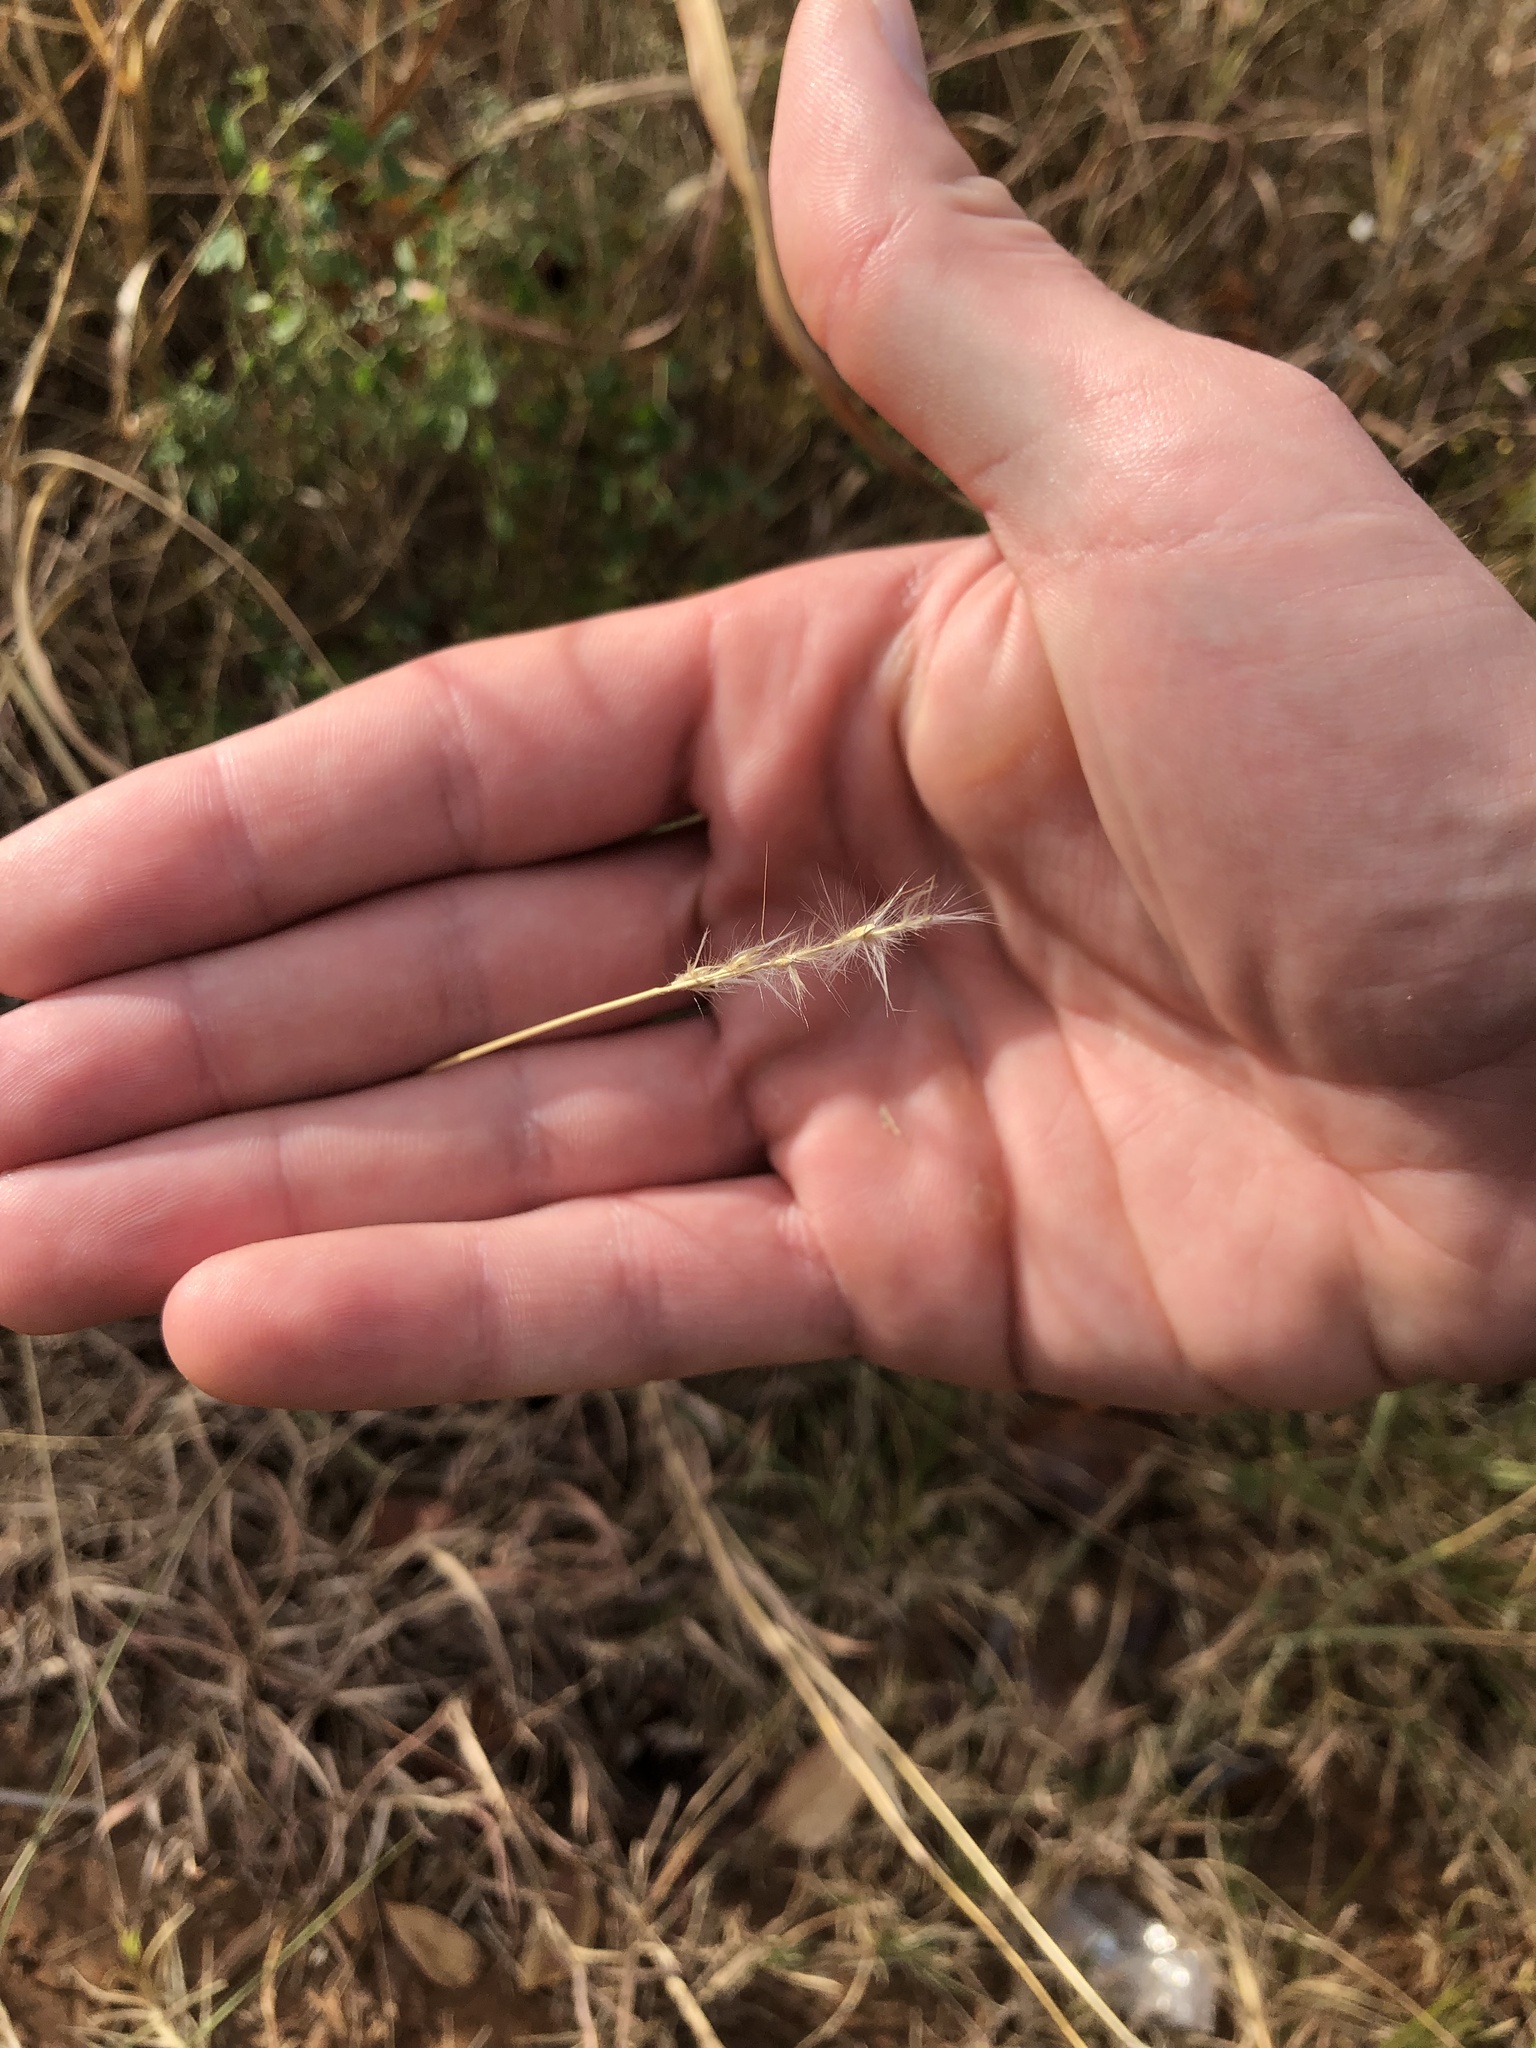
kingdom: Plantae
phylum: Tracheophyta
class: Liliopsida
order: Poales
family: Poaceae
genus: Bothriochloa
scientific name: Bothriochloa torreyana
